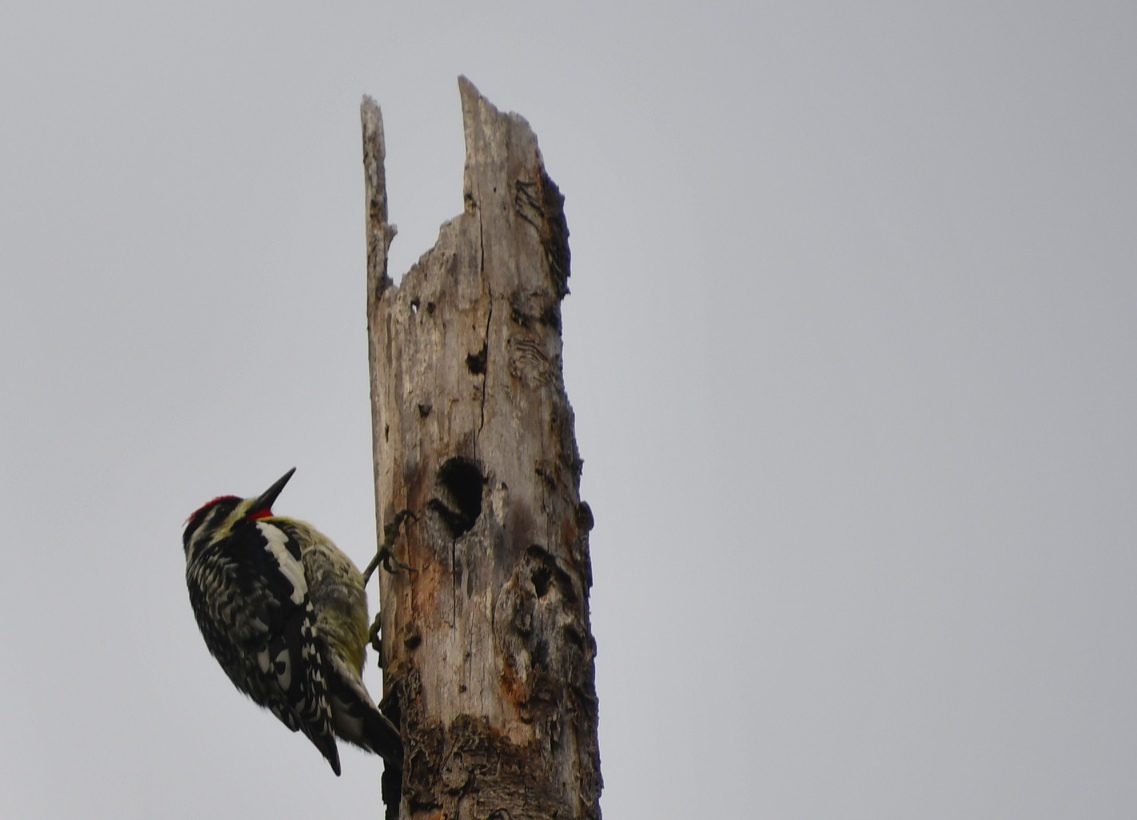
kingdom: Animalia
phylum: Chordata
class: Aves
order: Piciformes
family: Picidae
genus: Sphyrapicus
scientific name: Sphyrapicus varius
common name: Yellow-bellied sapsucker
